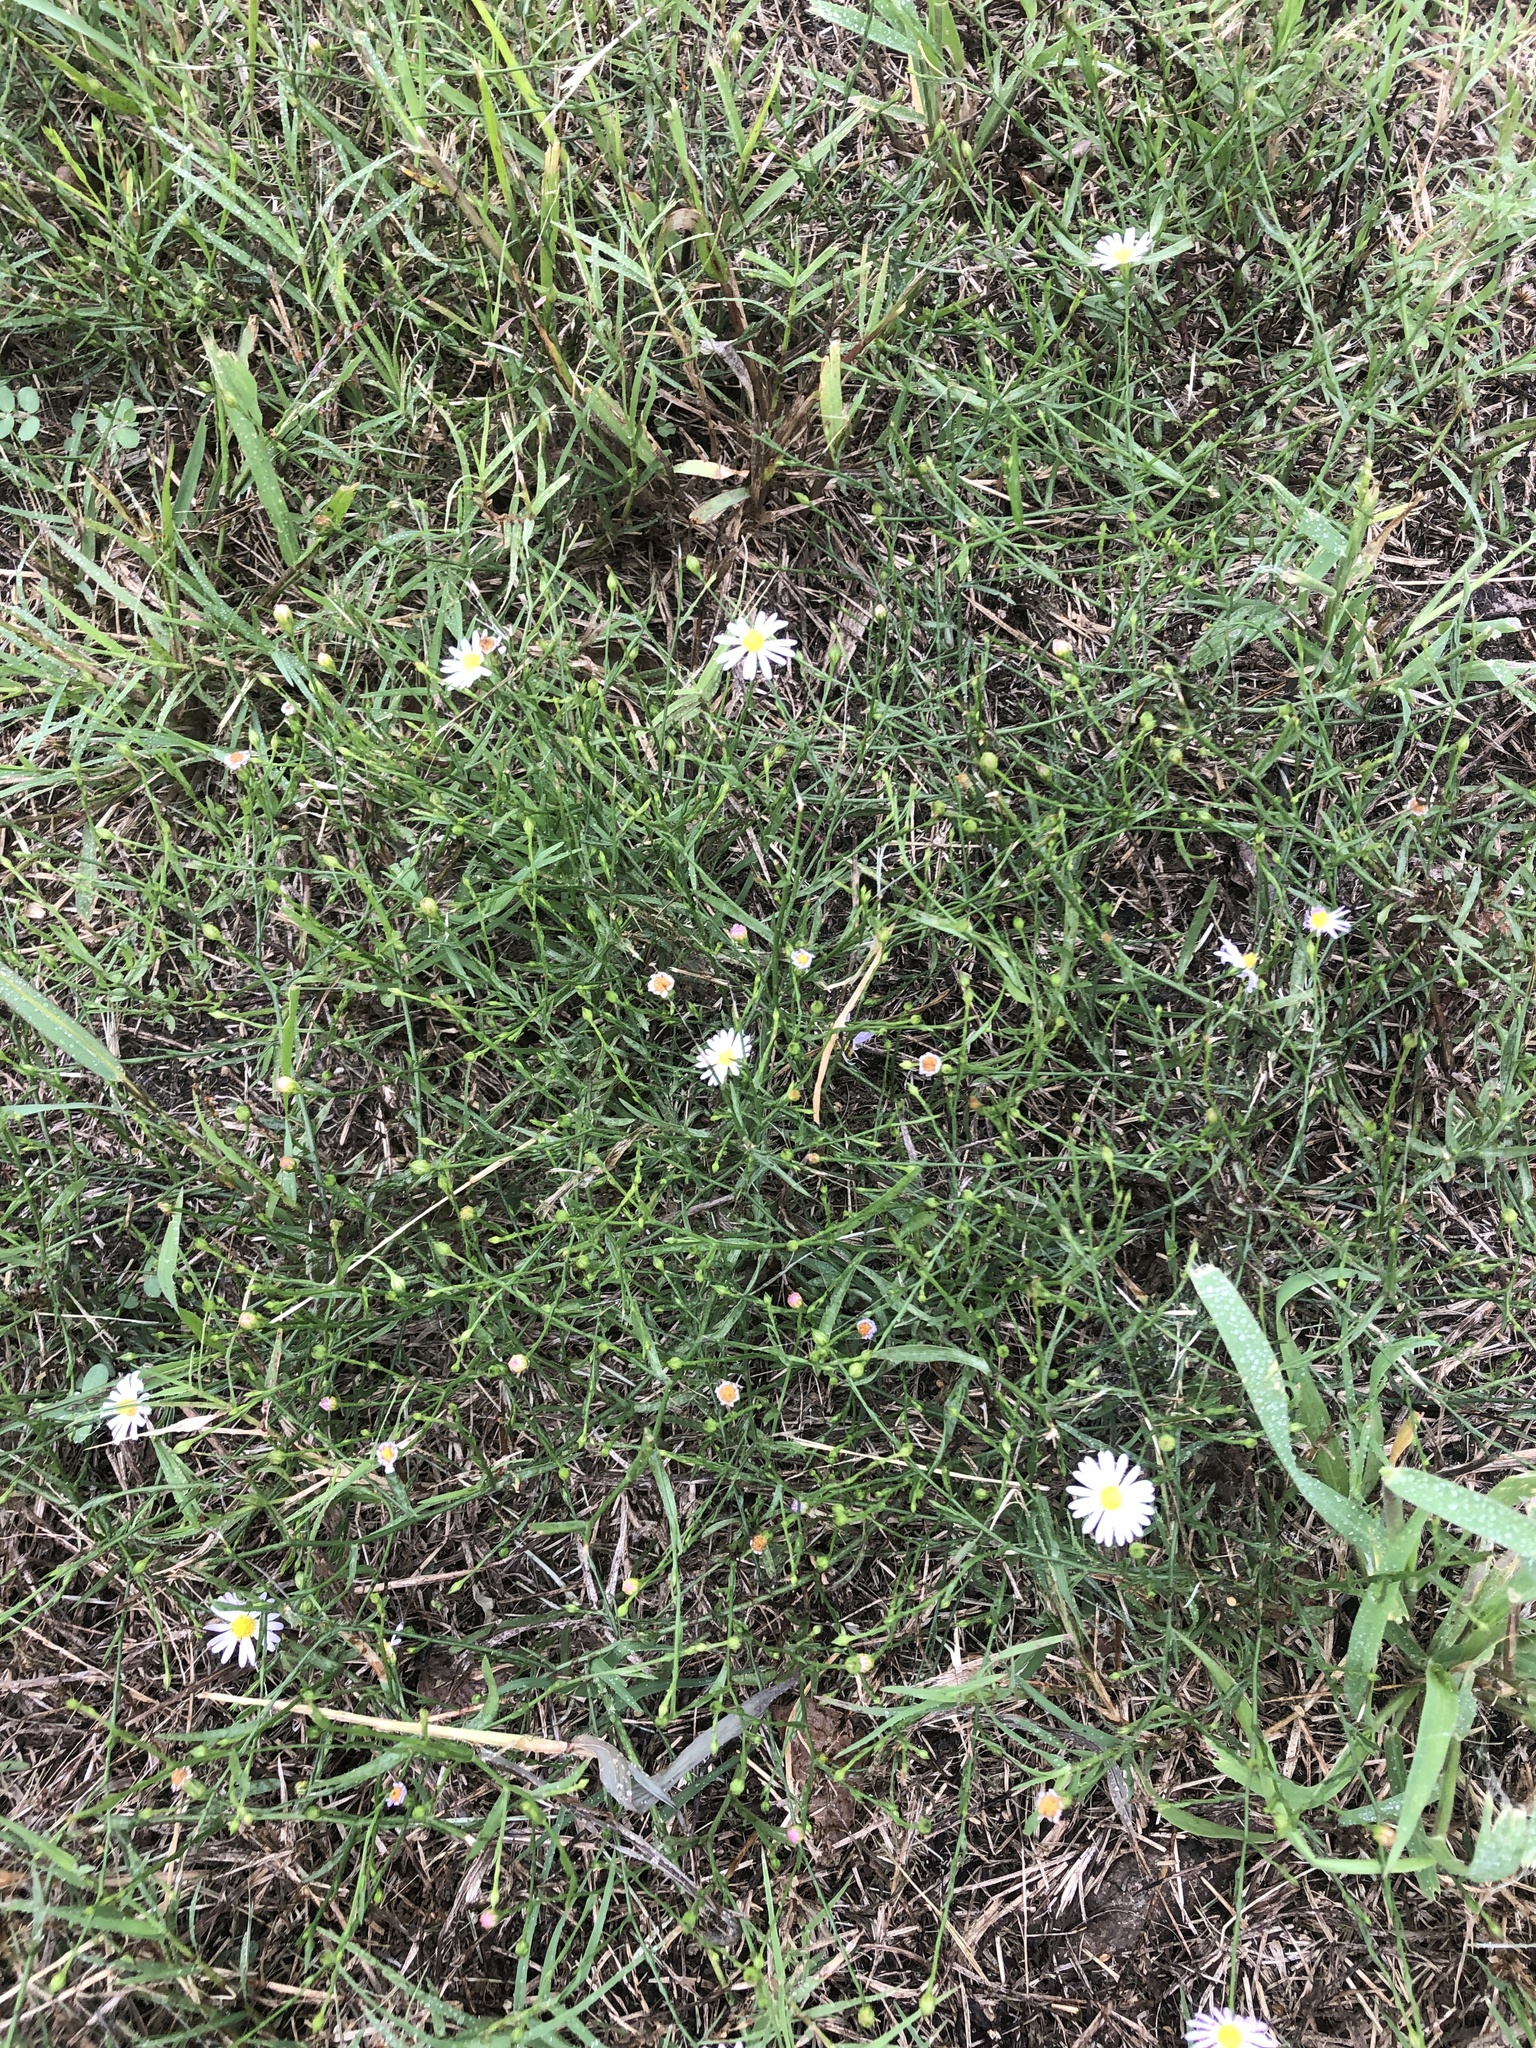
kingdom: Plantae
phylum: Tracheophyta
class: Magnoliopsida
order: Asterales
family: Asteraceae
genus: Symphyotrichum
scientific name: Symphyotrichum divaricatum
